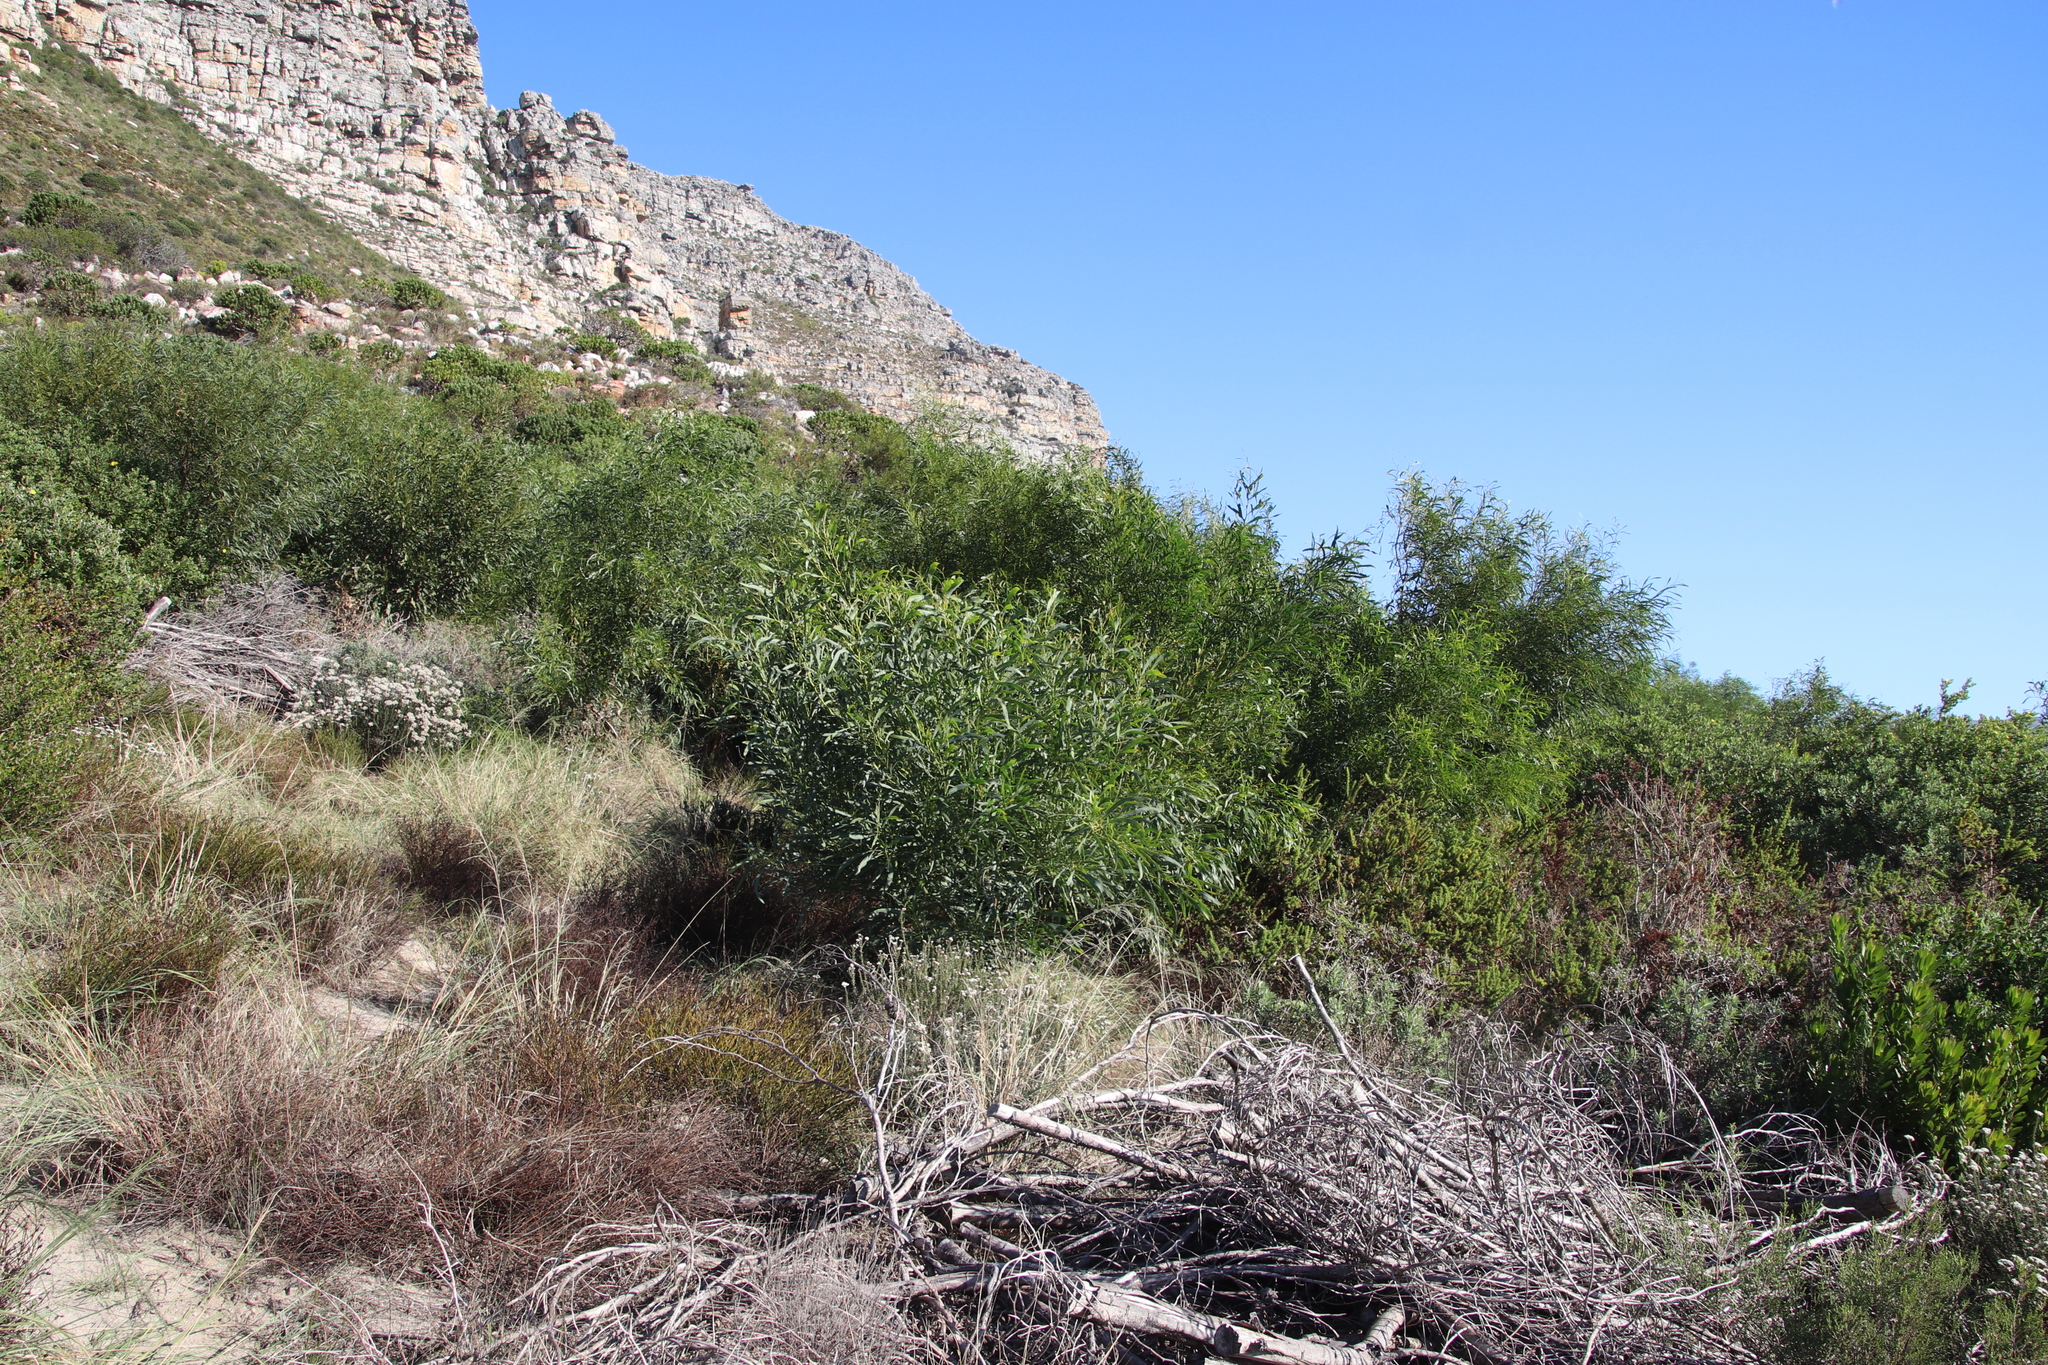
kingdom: Plantae
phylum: Tracheophyta
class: Magnoliopsida
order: Fabales
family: Fabaceae
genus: Acacia
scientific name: Acacia saligna
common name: Orange wattle
